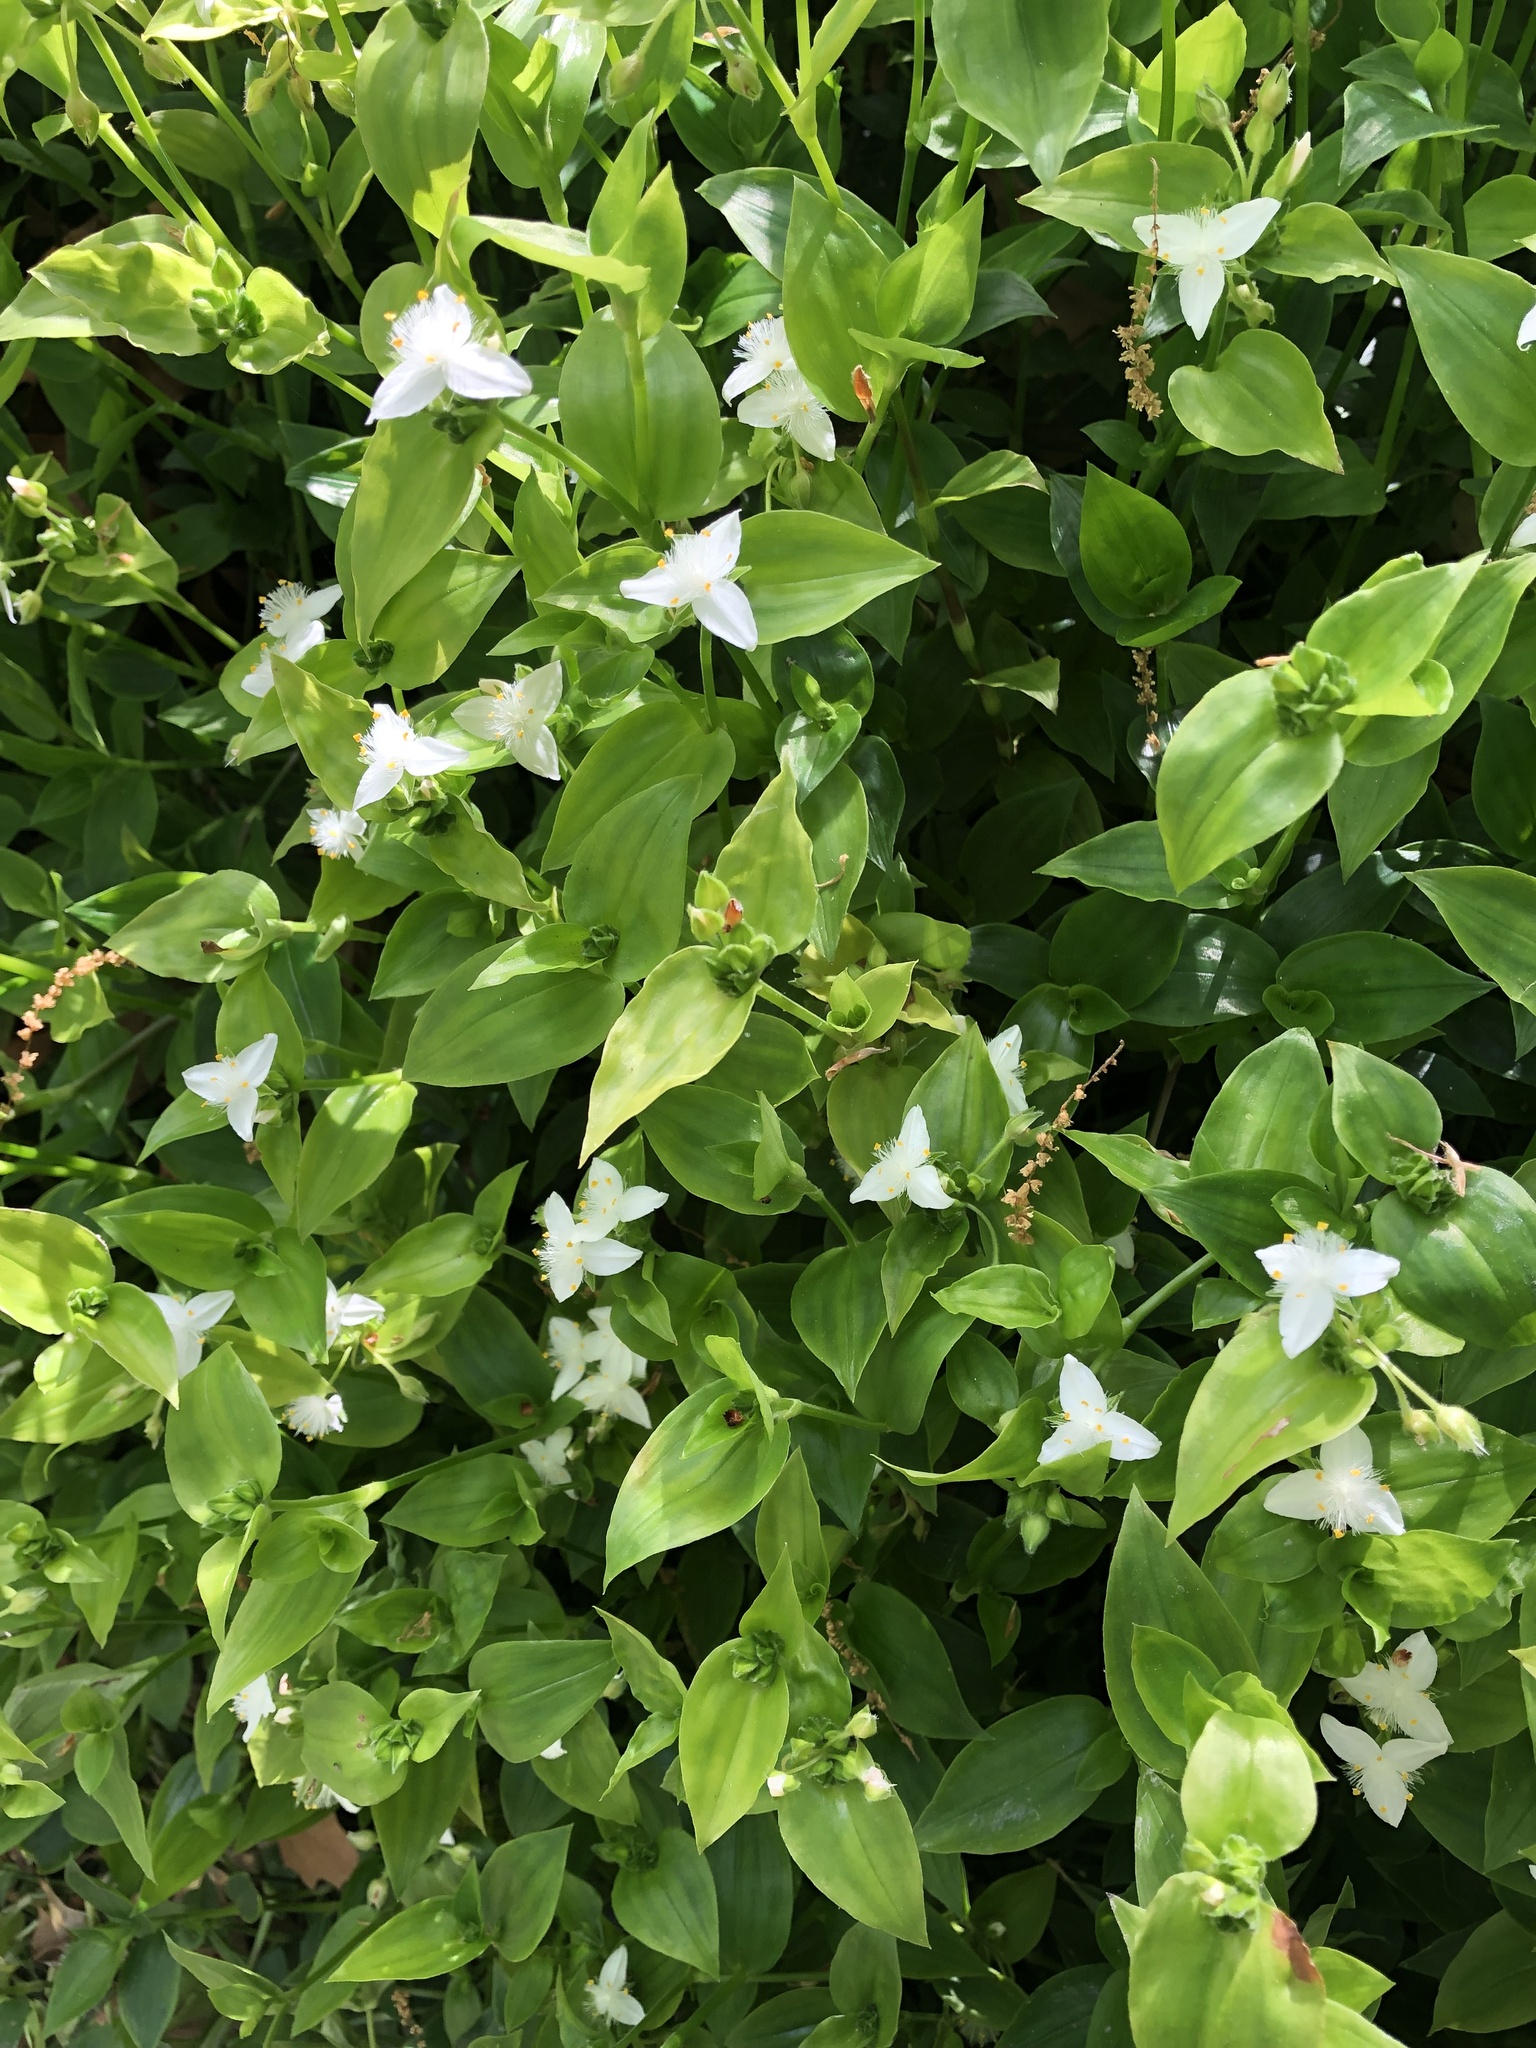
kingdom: Plantae
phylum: Tracheophyta
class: Liliopsida
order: Commelinales
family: Commelinaceae
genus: Tradescantia
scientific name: Tradescantia fluminensis
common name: Wandering-jew
